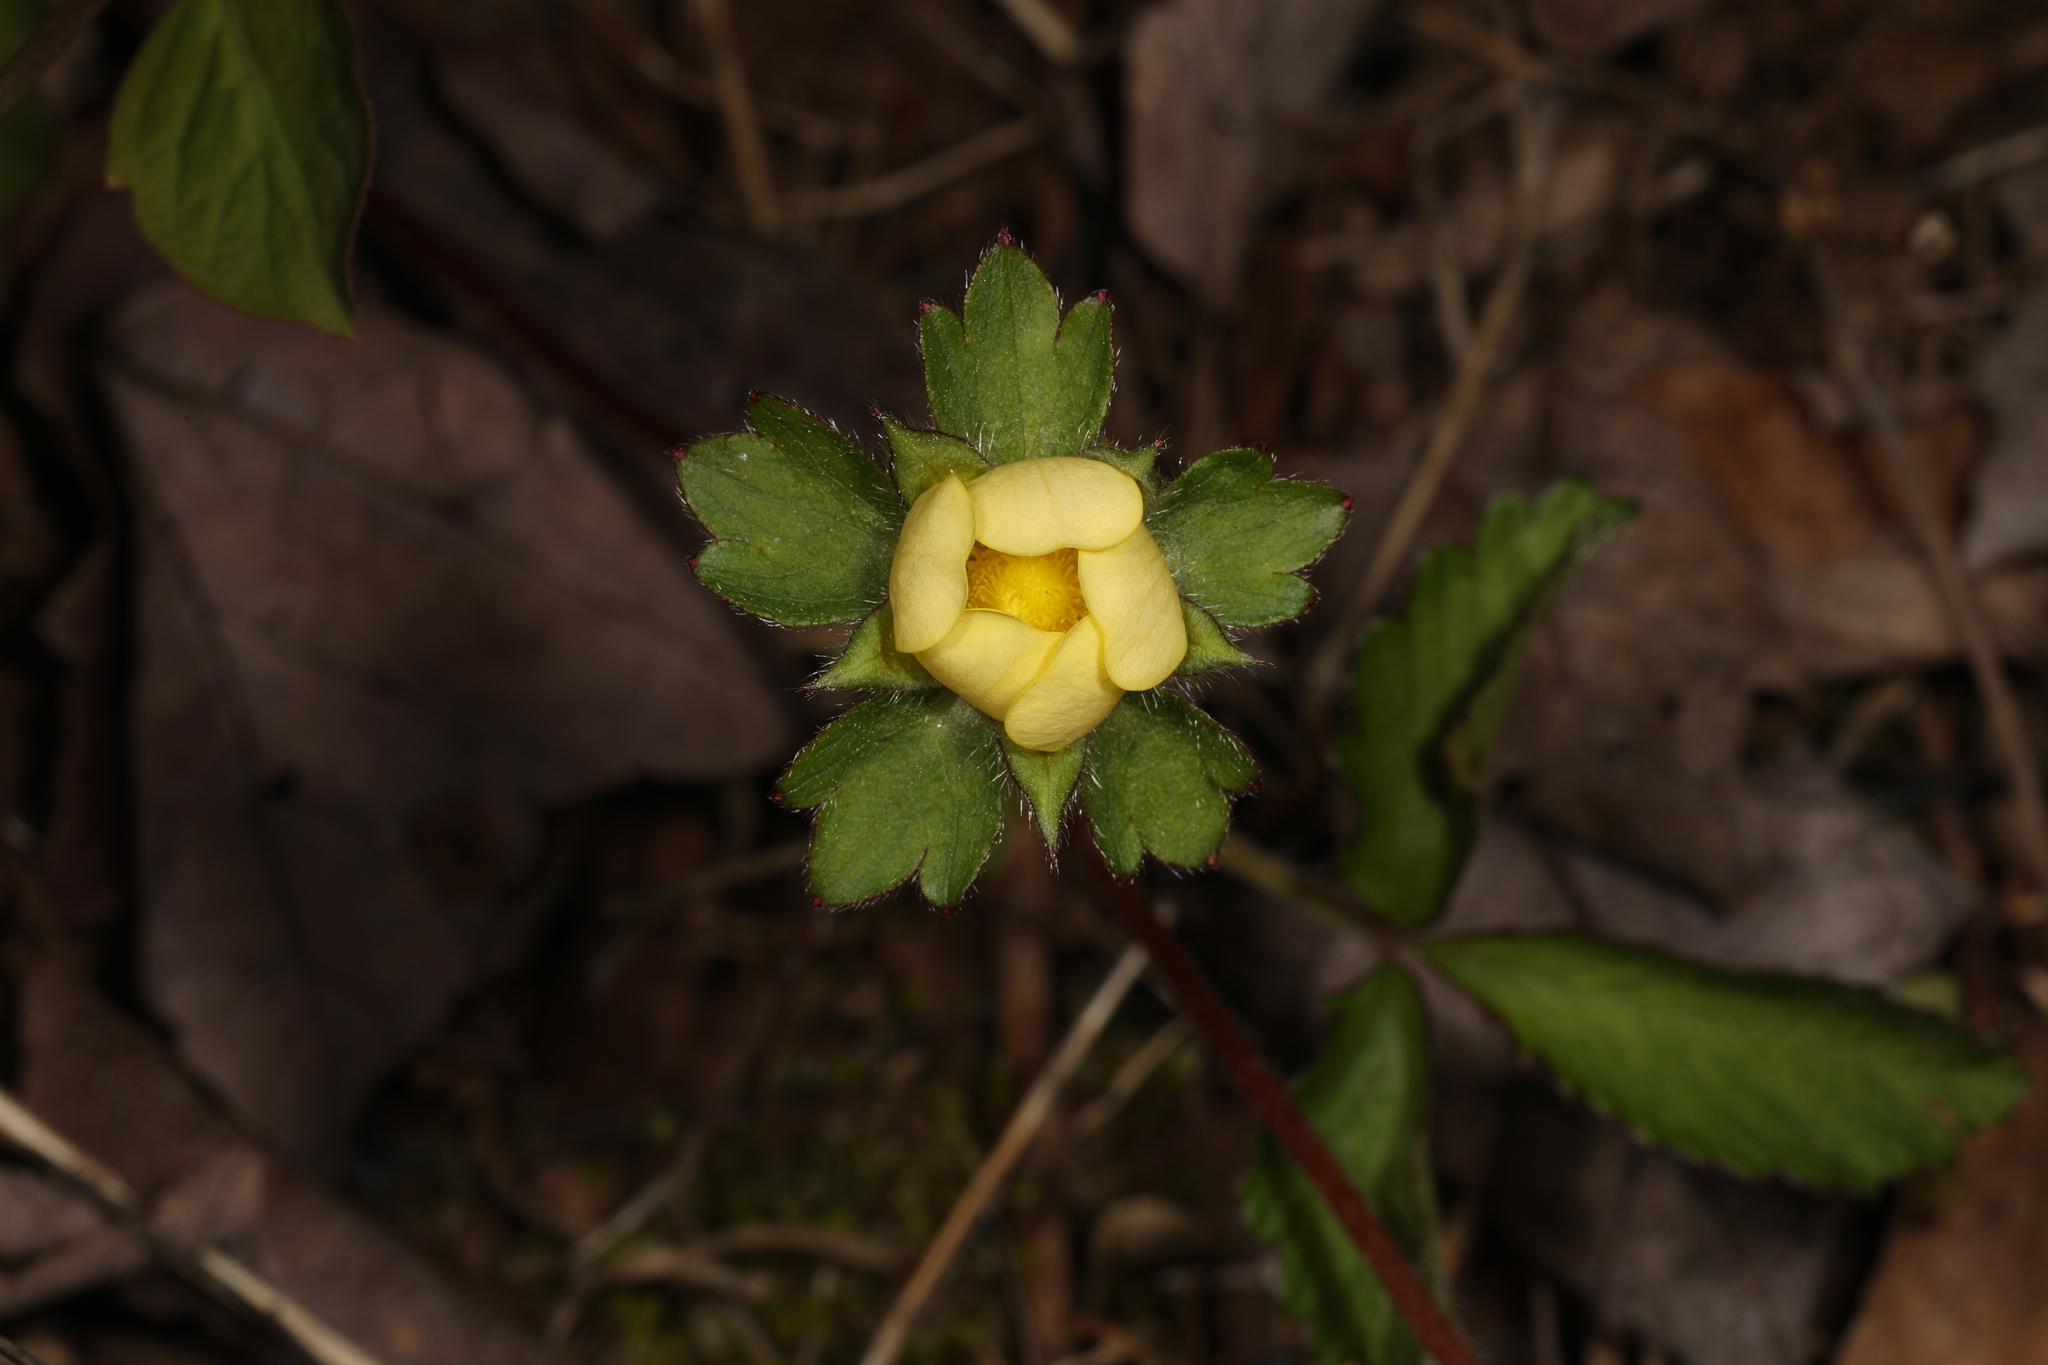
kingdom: Plantae
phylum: Tracheophyta
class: Magnoliopsida
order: Rosales
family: Rosaceae
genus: Potentilla
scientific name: Potentilla indica
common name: Yellow-flowered strawberry
